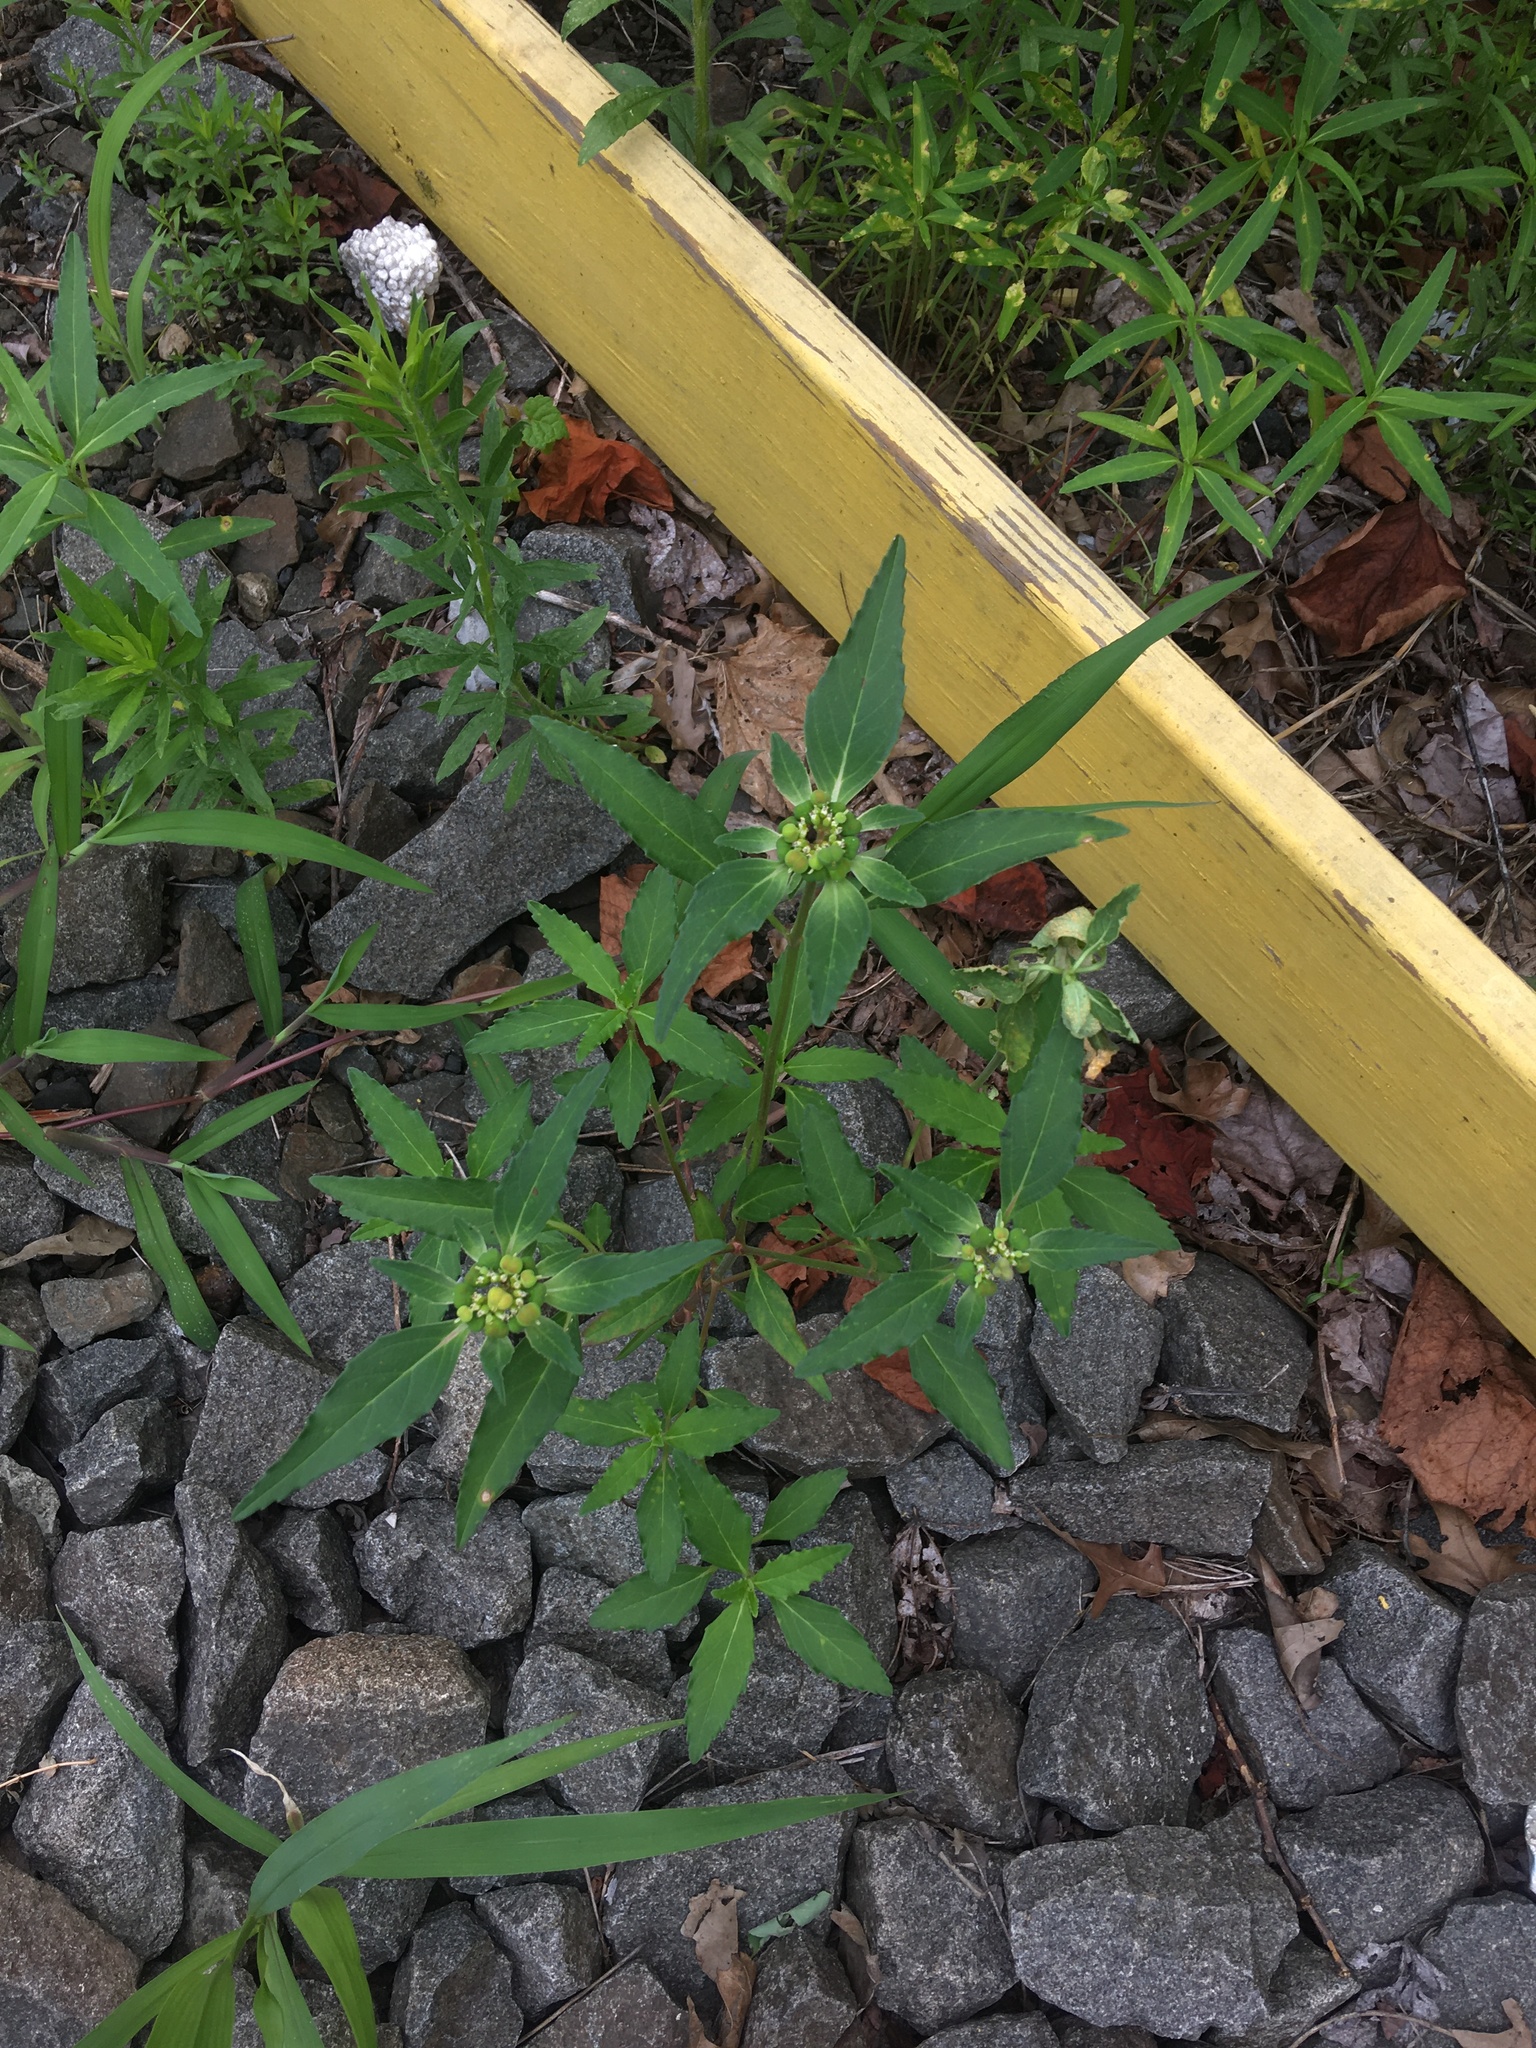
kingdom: Plantae
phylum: Tracheophyta
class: Magnoliopsida
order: Malpighiales
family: Euphorbiaceae
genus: Euphorbia
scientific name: Euphorbia dentata
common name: Dentate spurge
